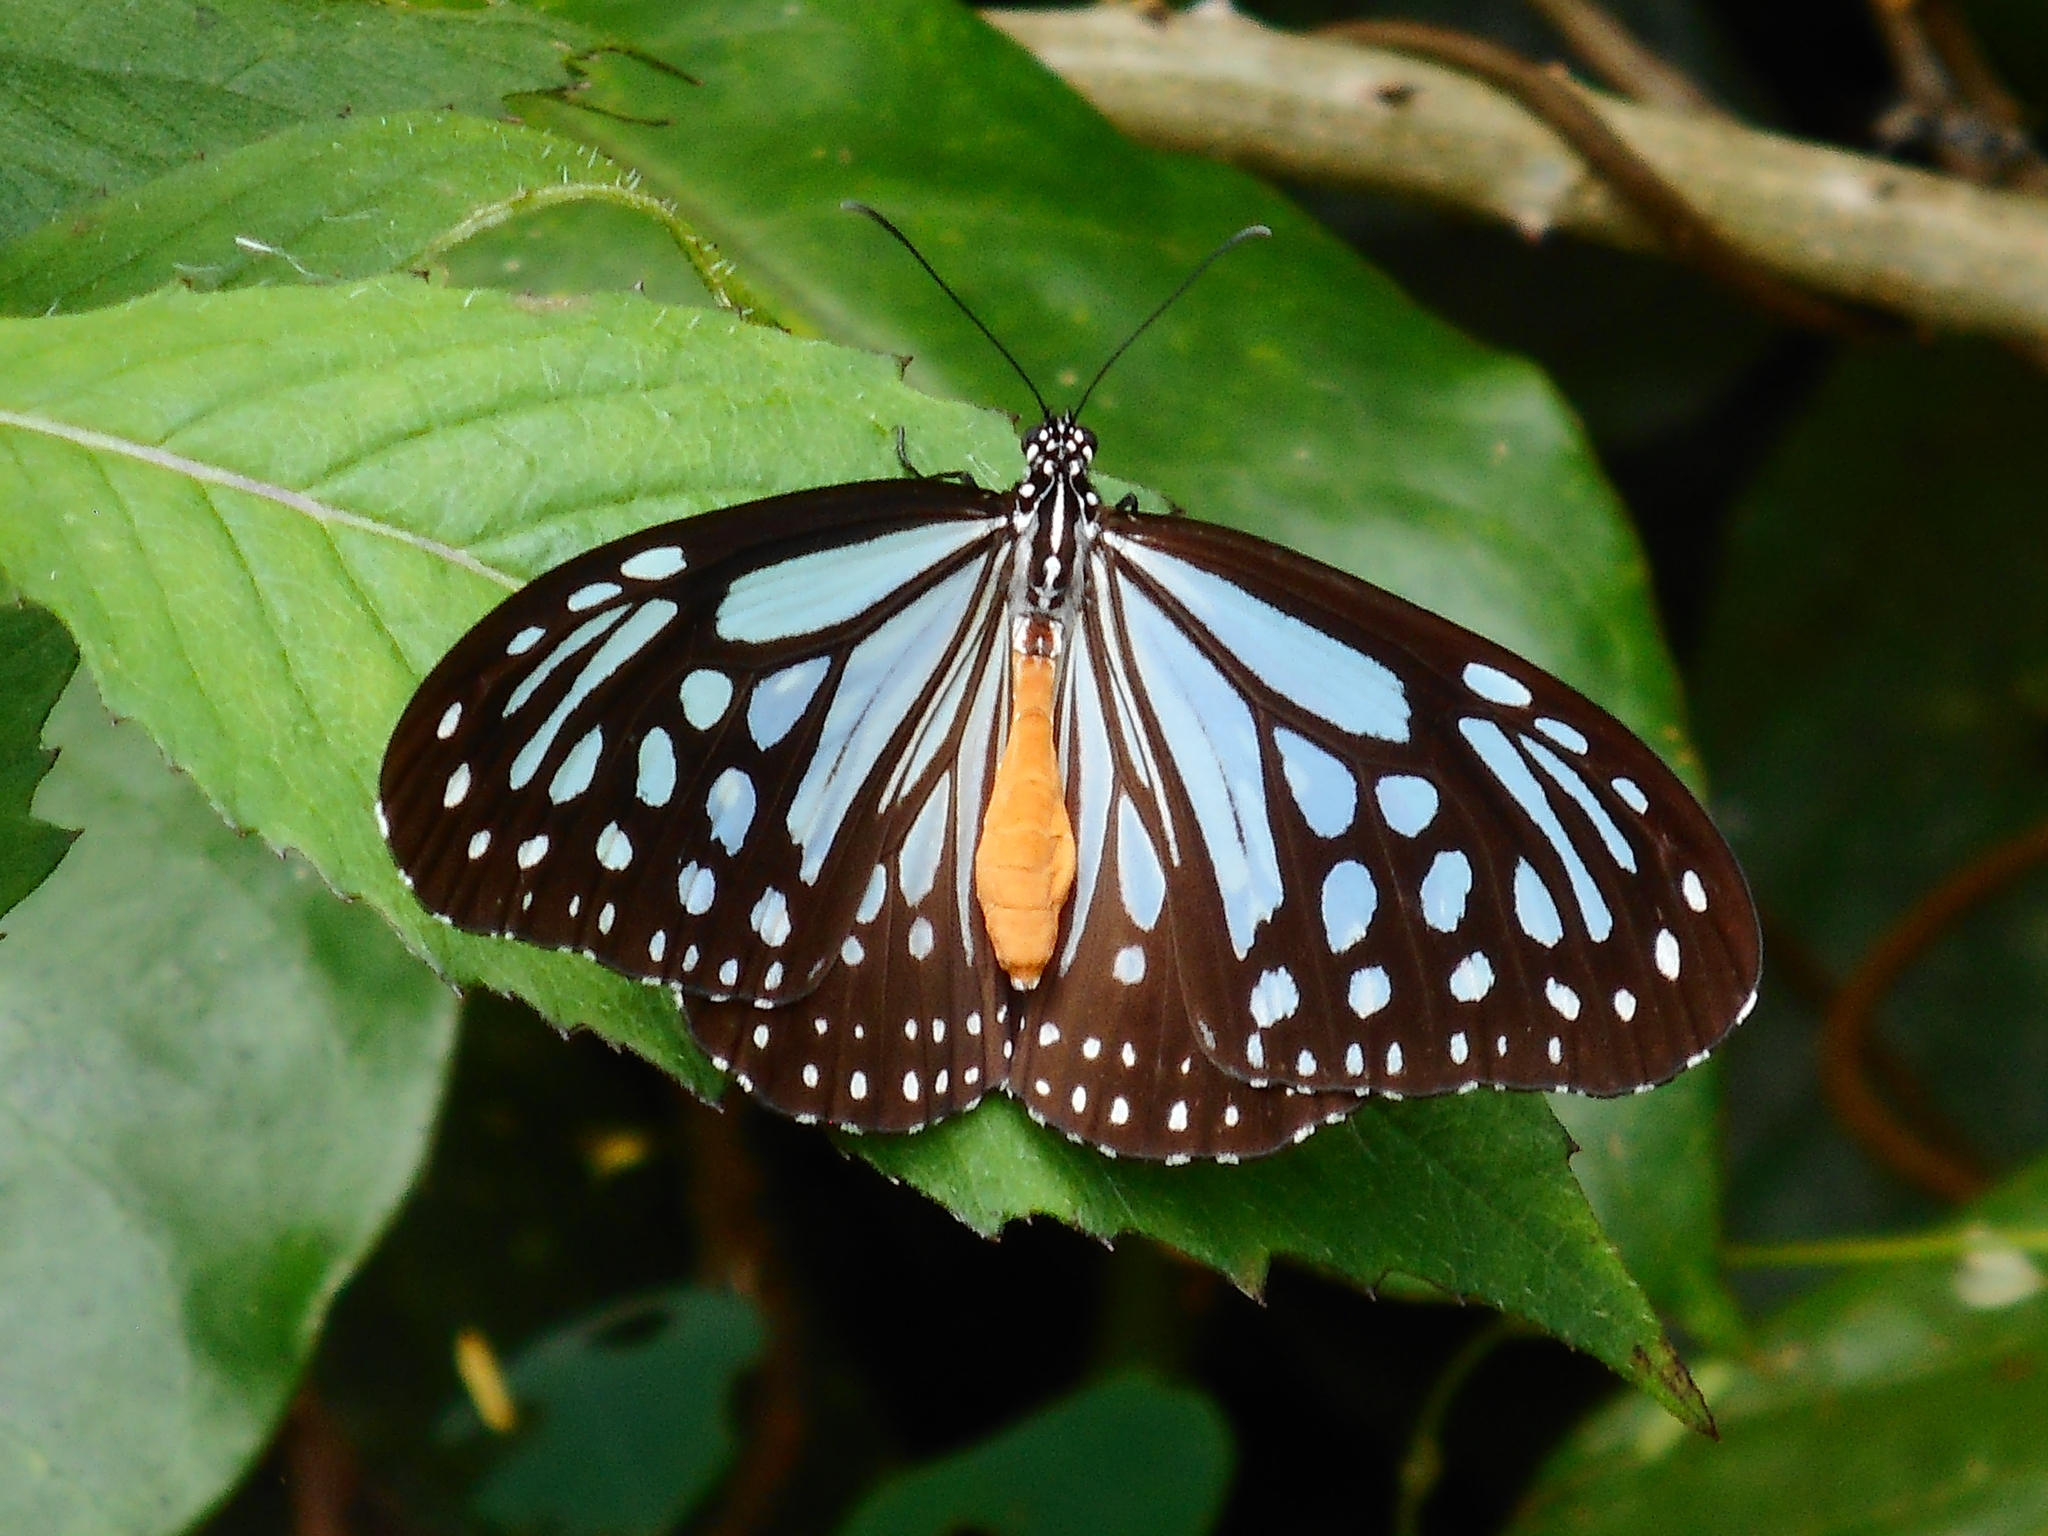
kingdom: Animalia
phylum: Arthropoda
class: Insecta
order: Lepidoptera
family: Nymphalidae
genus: Parantica
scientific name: Parantica melaneus
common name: Chocolate tiger
